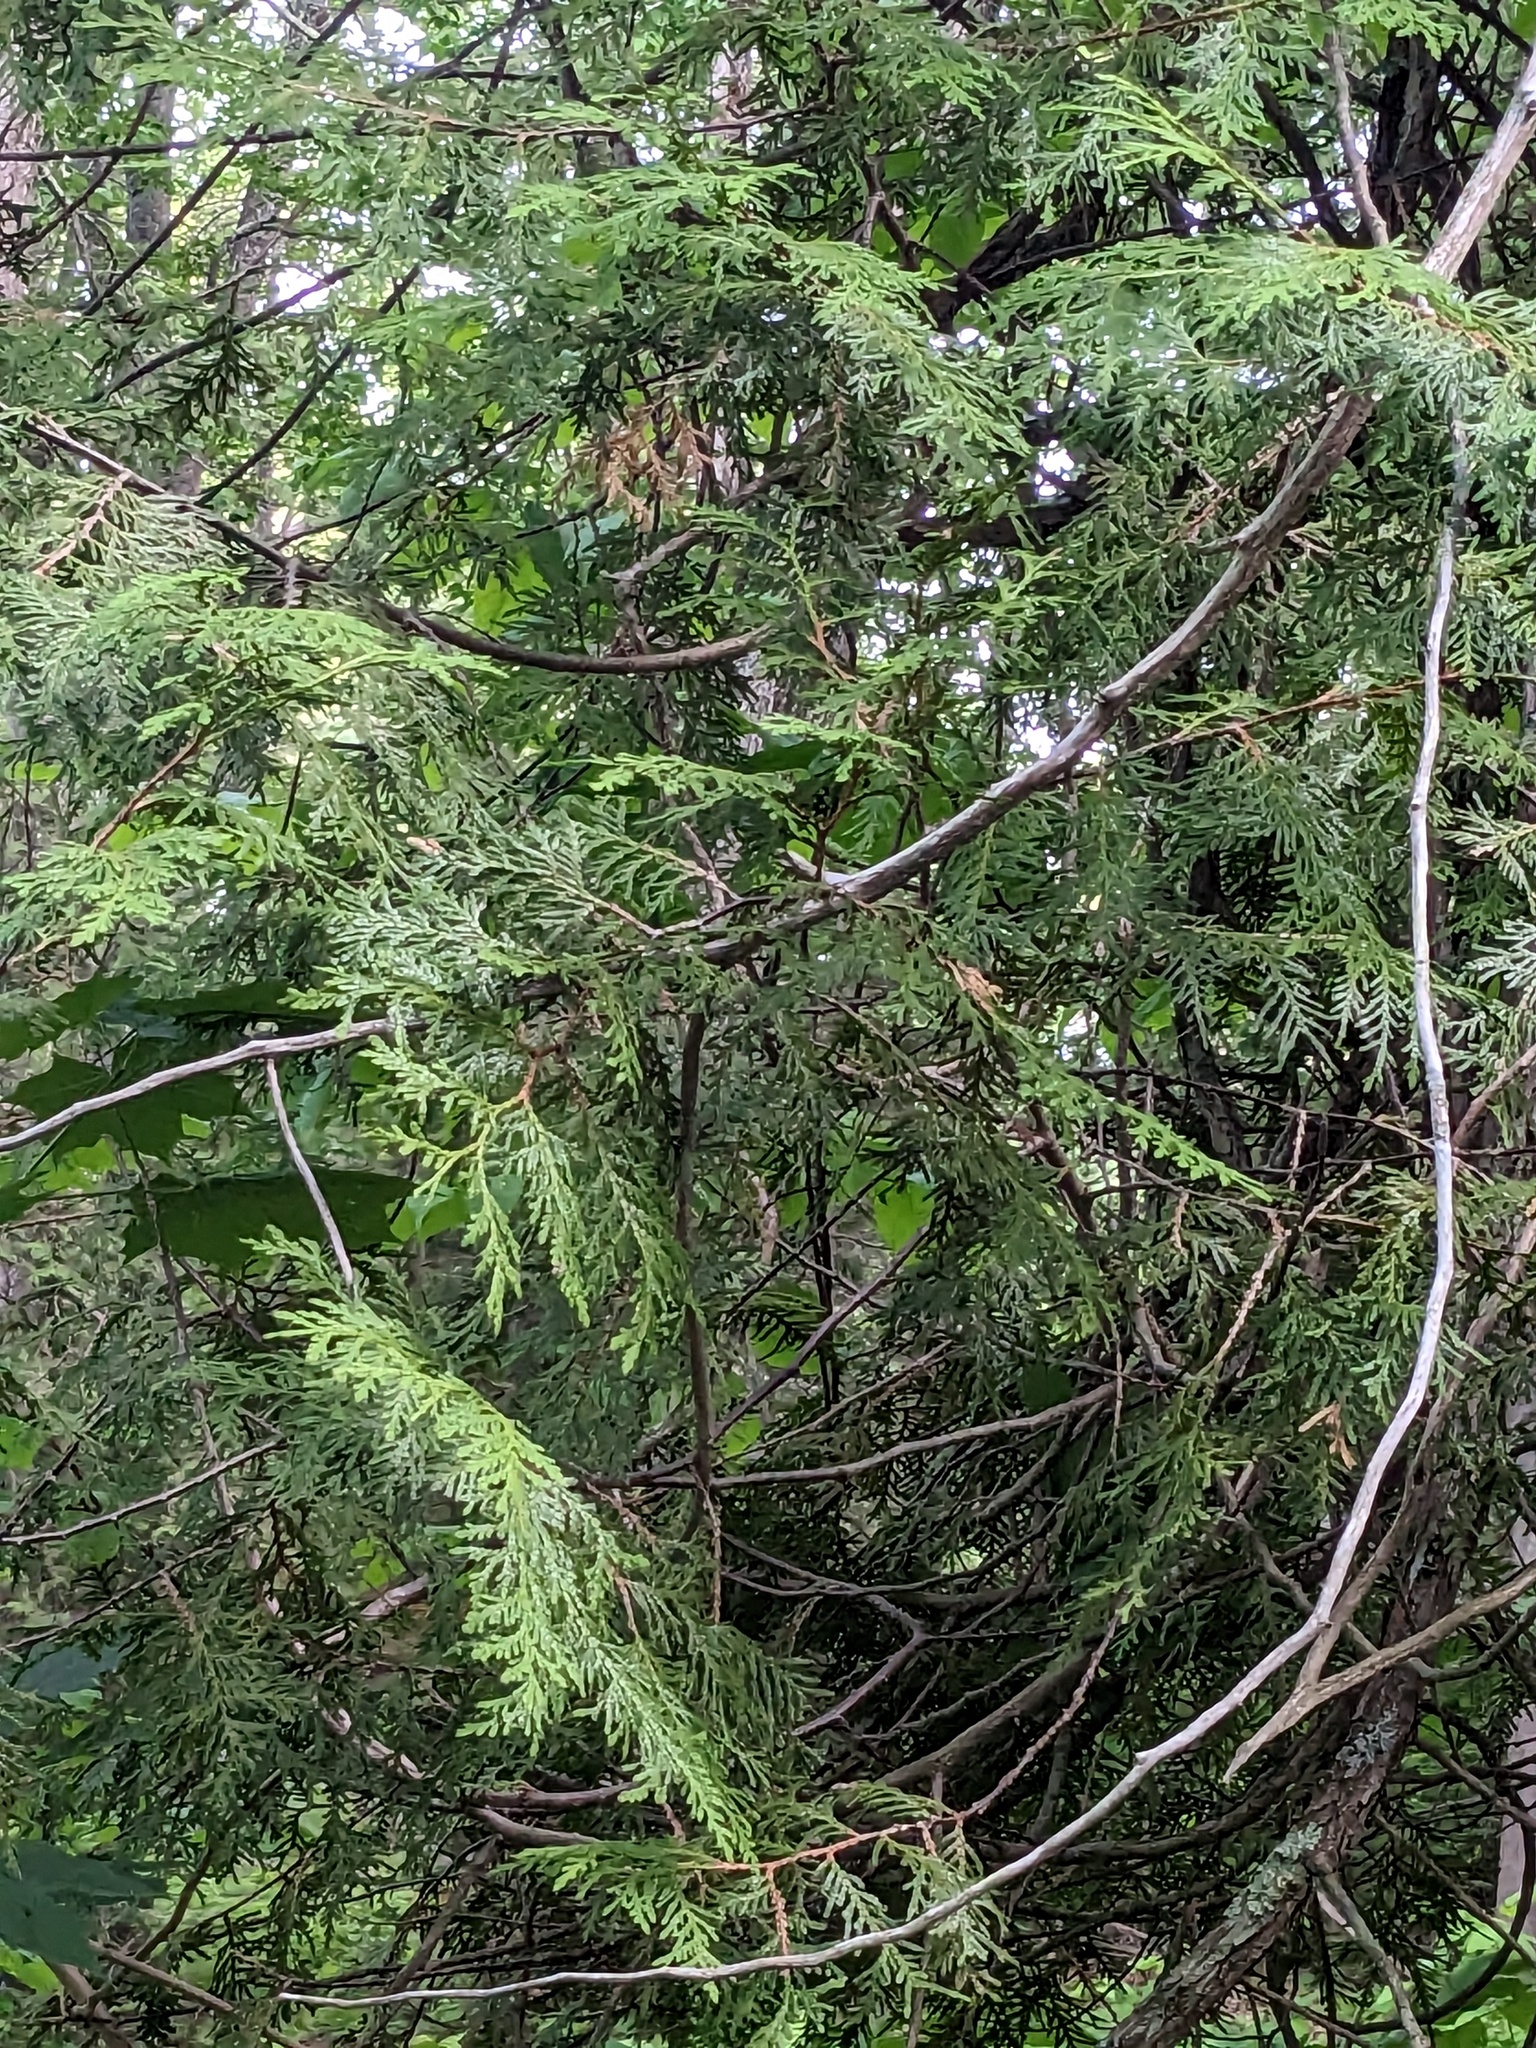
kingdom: Plantae
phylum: Tracheophyta
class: Pinopsida
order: Pinales
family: Cupressaceae
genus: Thuja
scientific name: Thuja occidentalis
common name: Northern white-cedar
